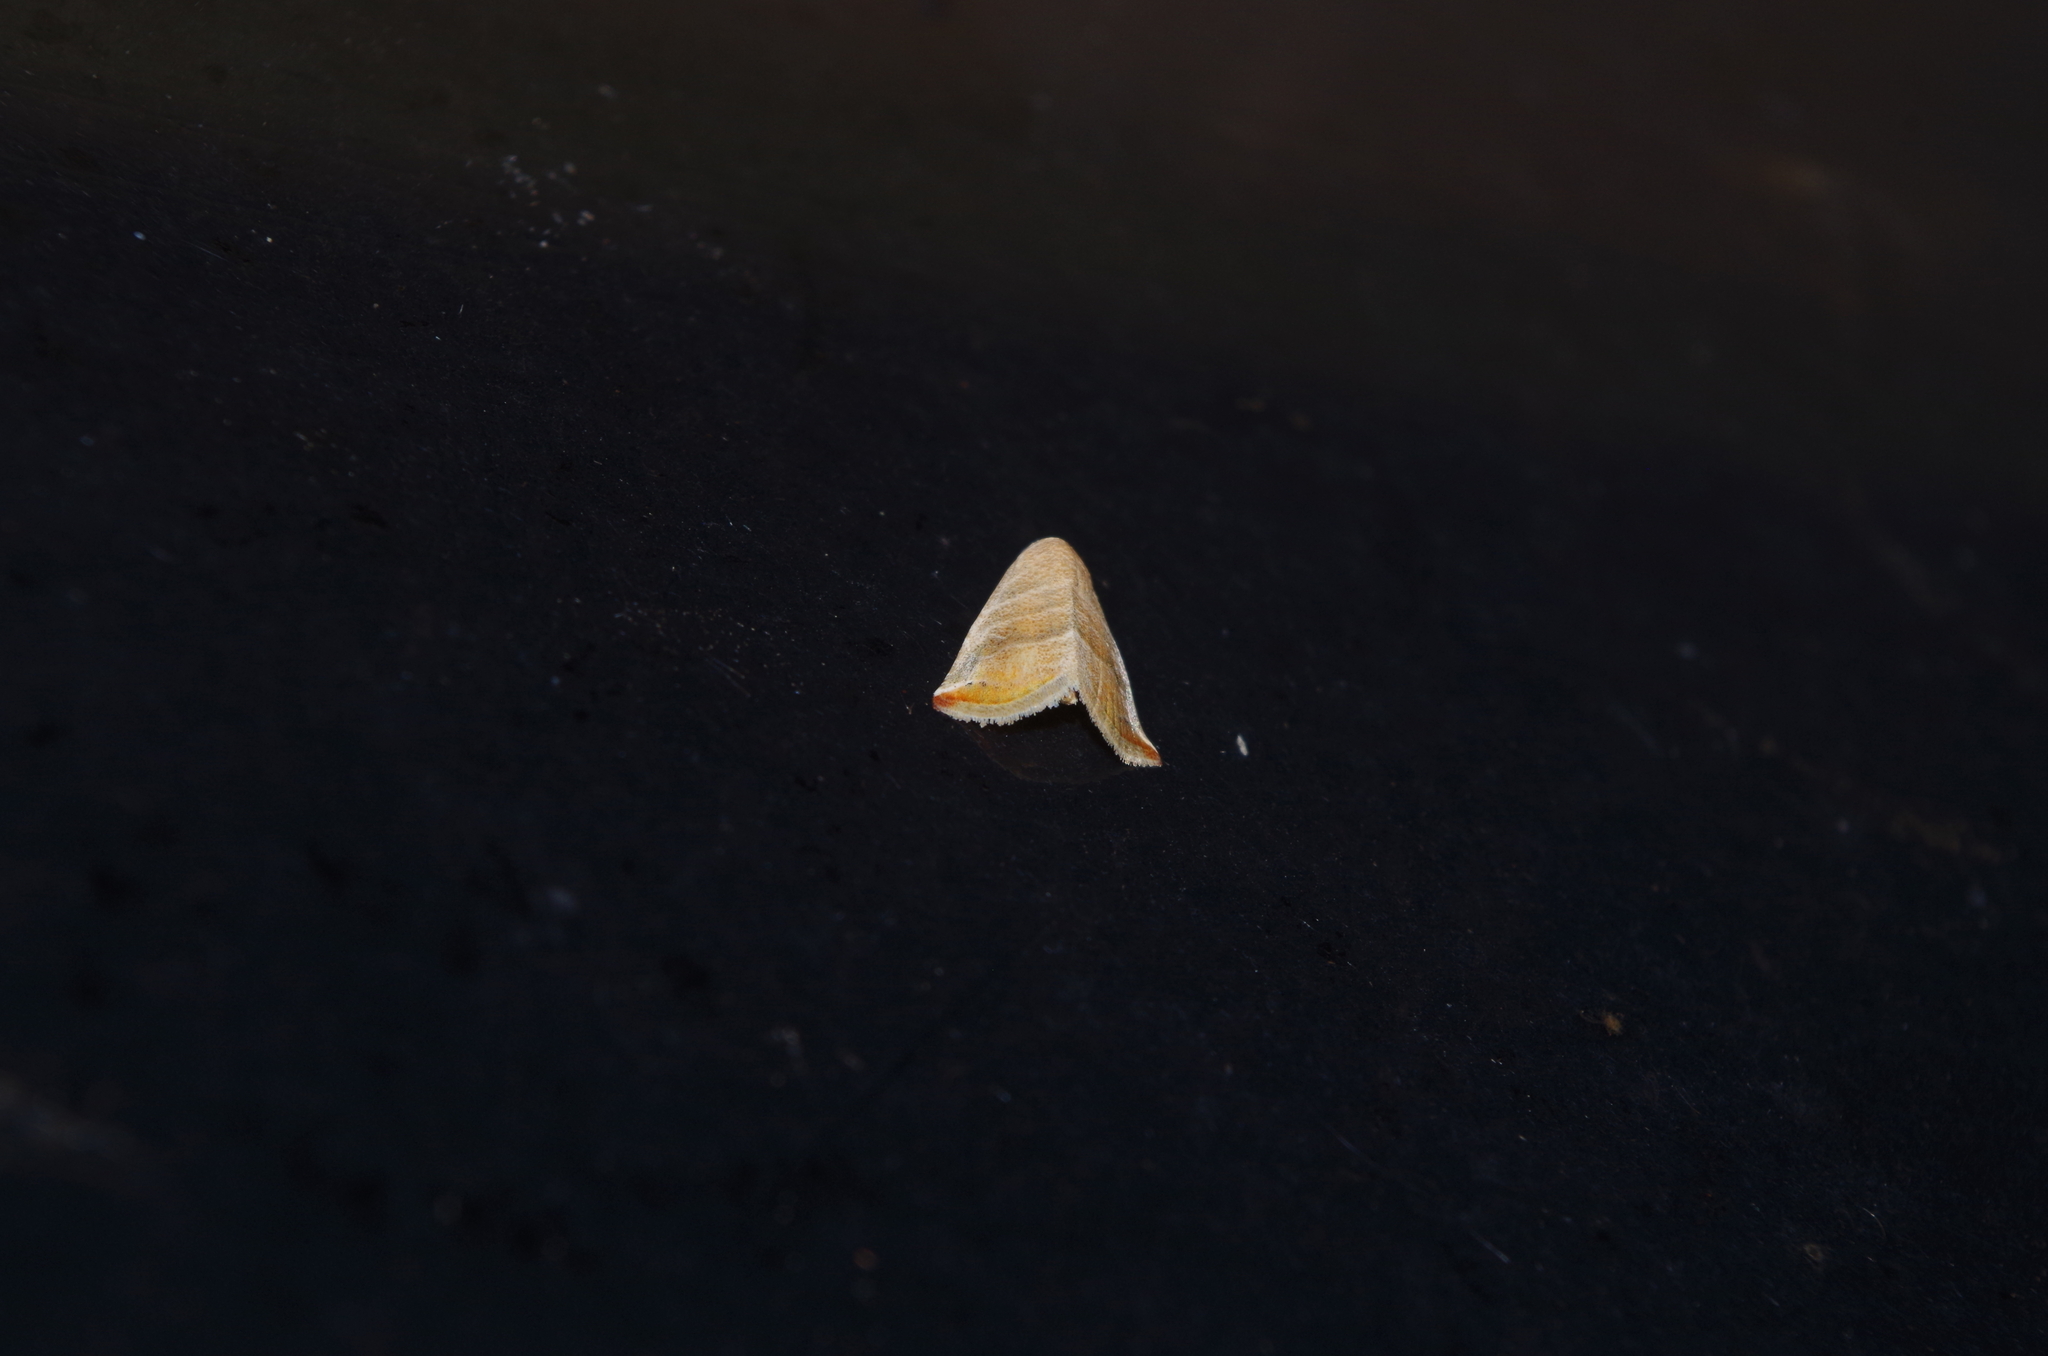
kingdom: Animalia
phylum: Arthropoda
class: Insecta
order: Lepidoptera
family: Noctuidae
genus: Eublemma
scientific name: Eublemma baccalix
